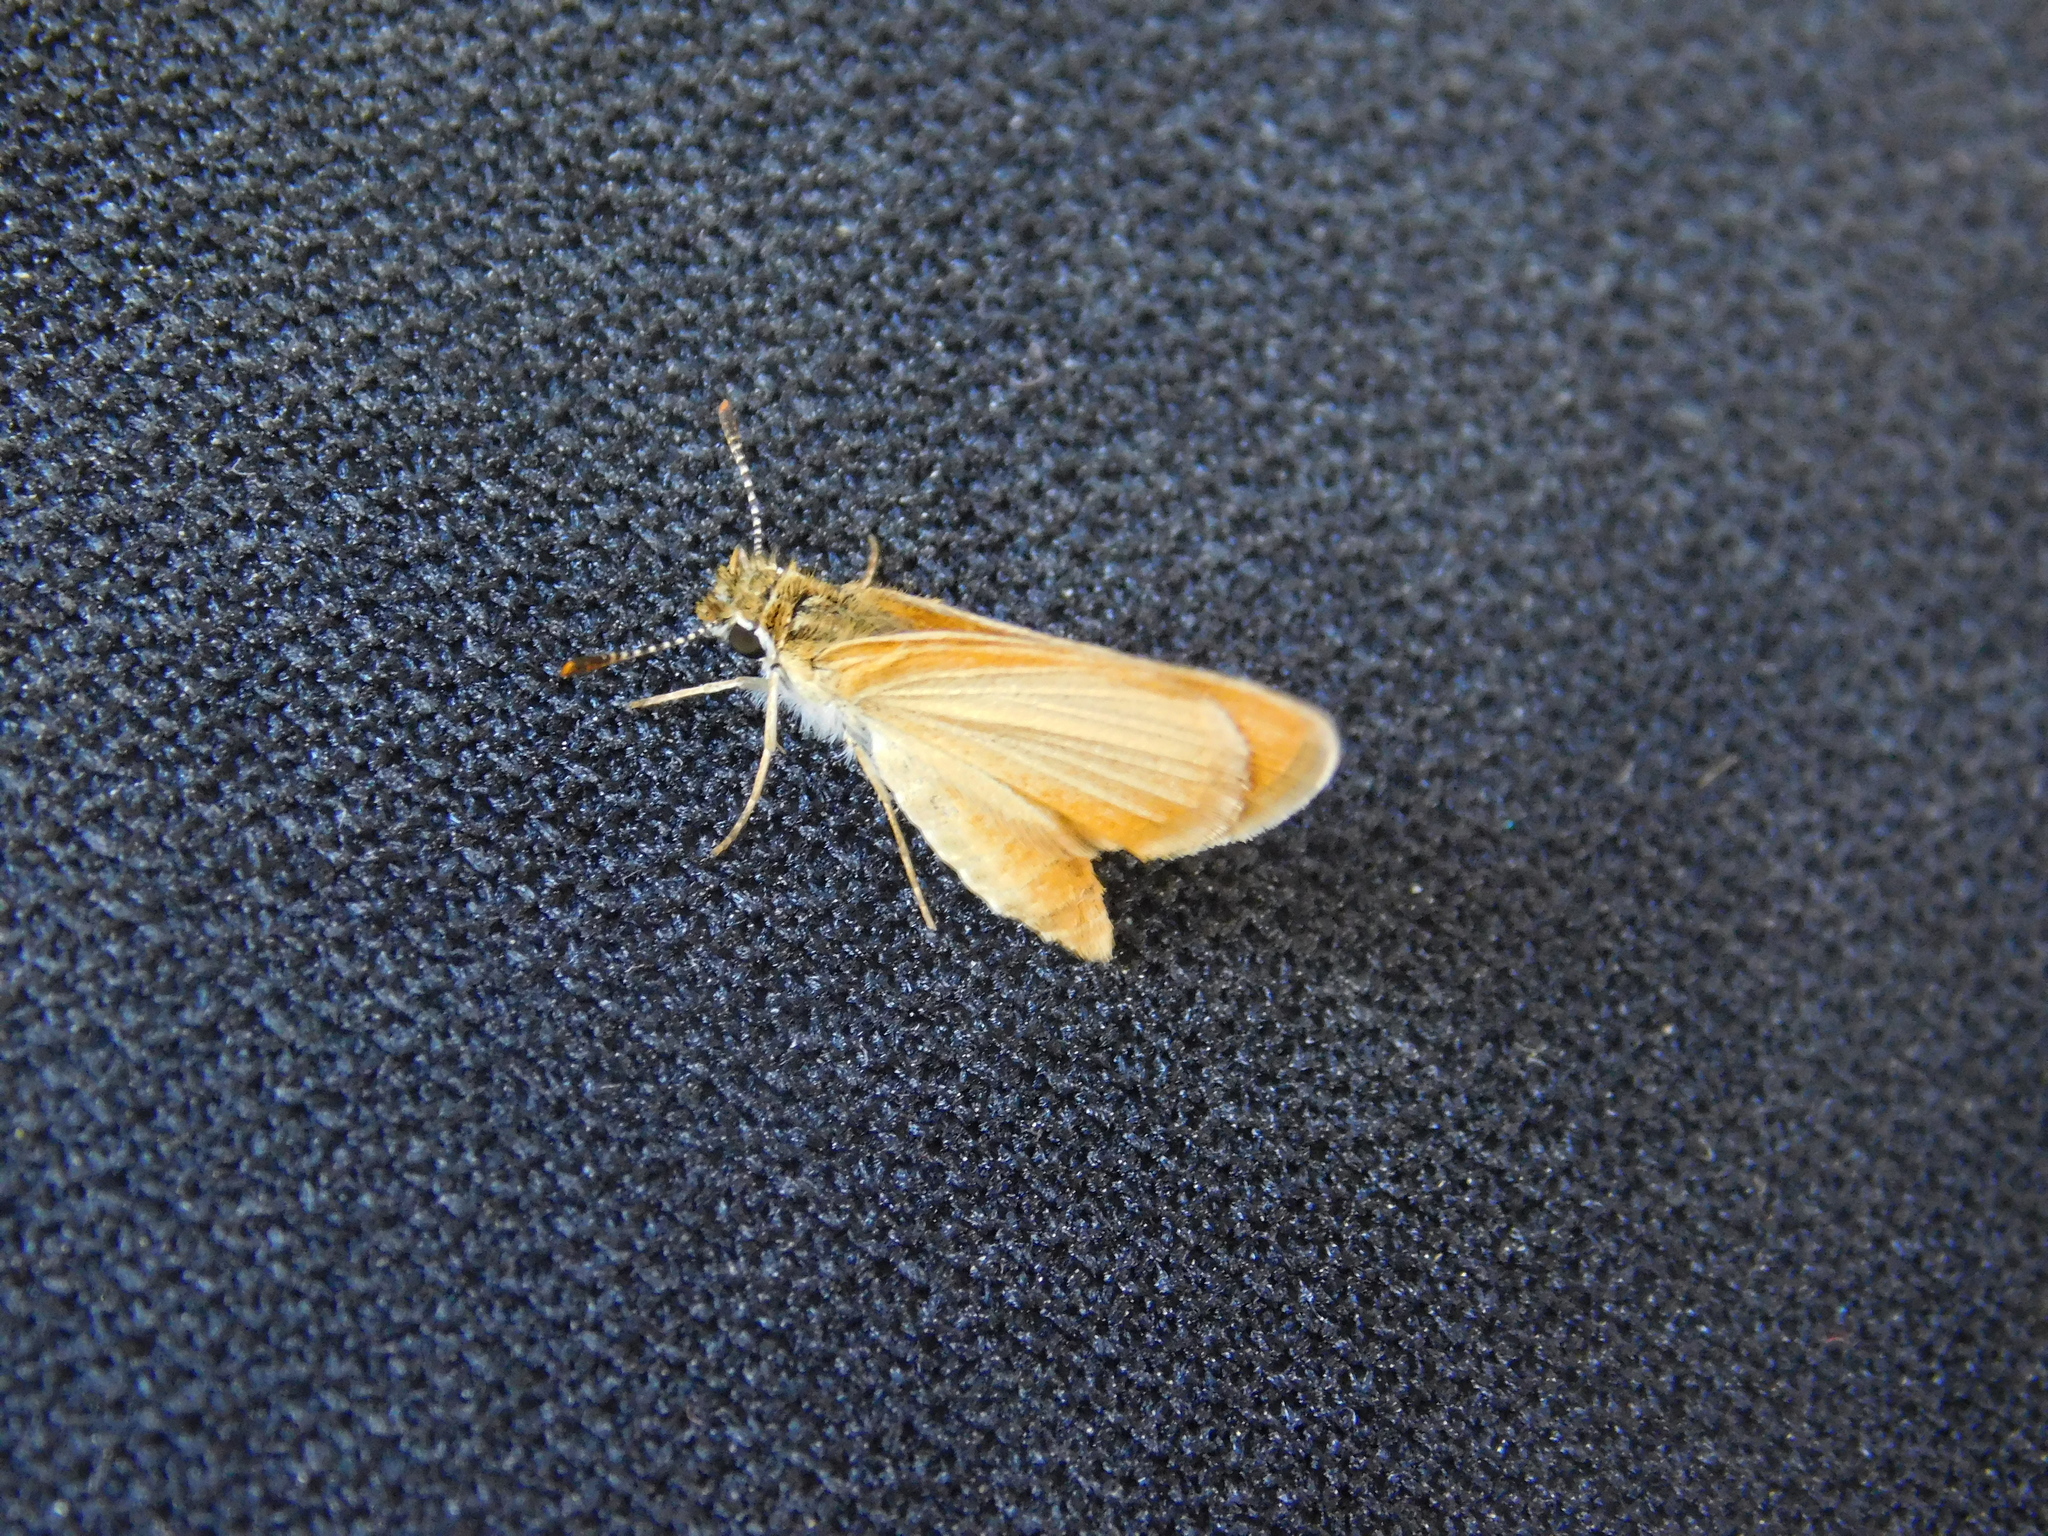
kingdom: Animalia
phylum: Arthropoda
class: Insecta
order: Lepidoptera
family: Hesperiidae
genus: Ancyloxypha
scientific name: Ancyloxypha nitedula
